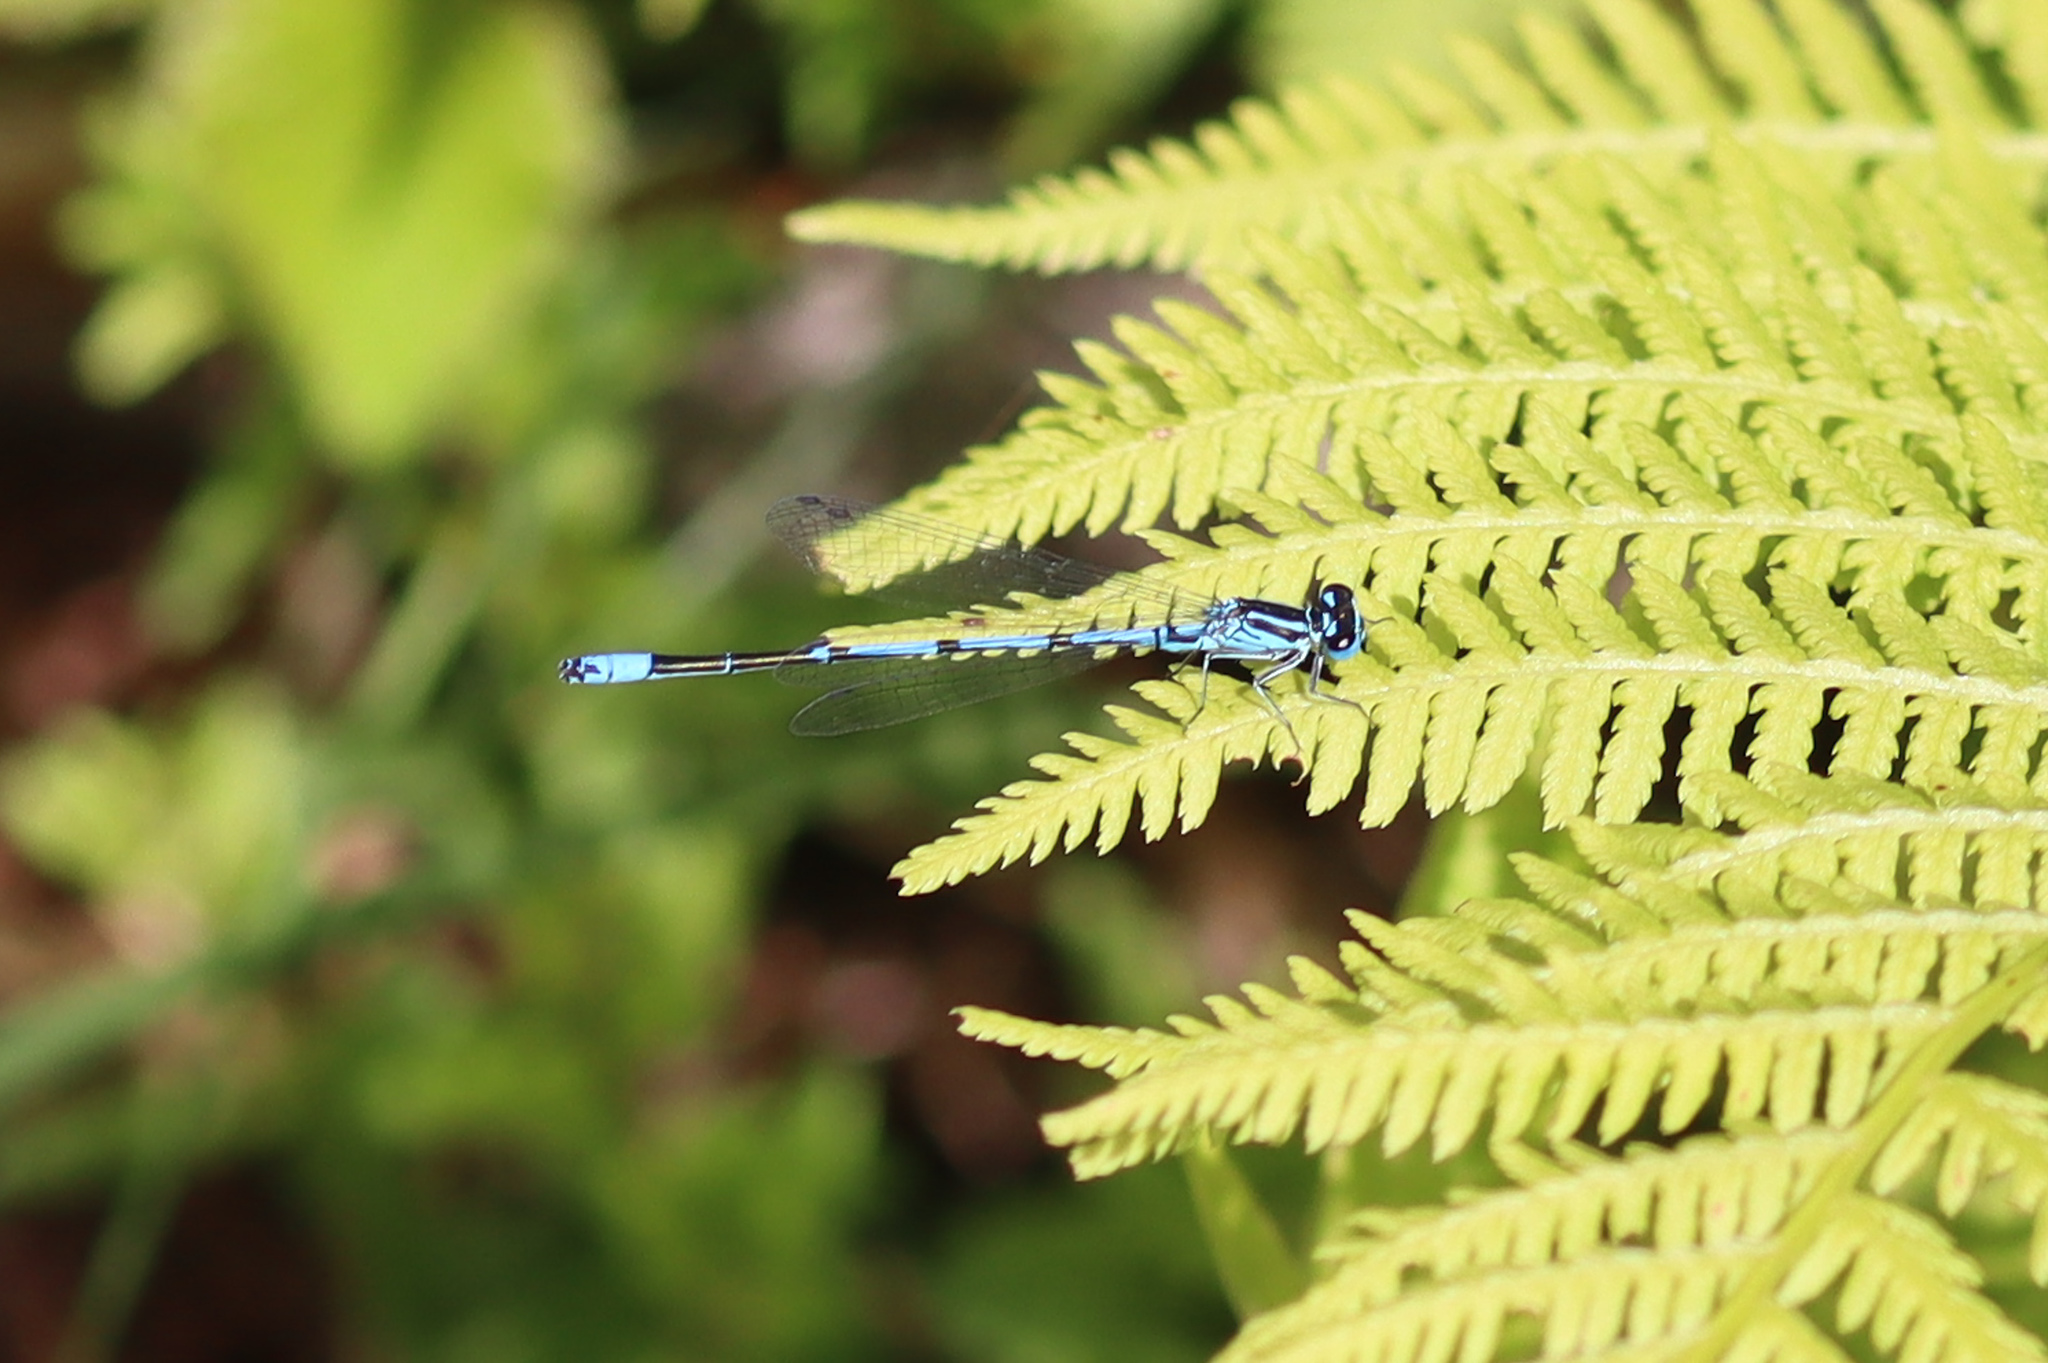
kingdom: Animalia
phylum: Arthropoda
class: Insecta
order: Odonata
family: Coenagrionidae
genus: Coenagrion
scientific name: Coenagrion puella
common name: Azure damselfly
